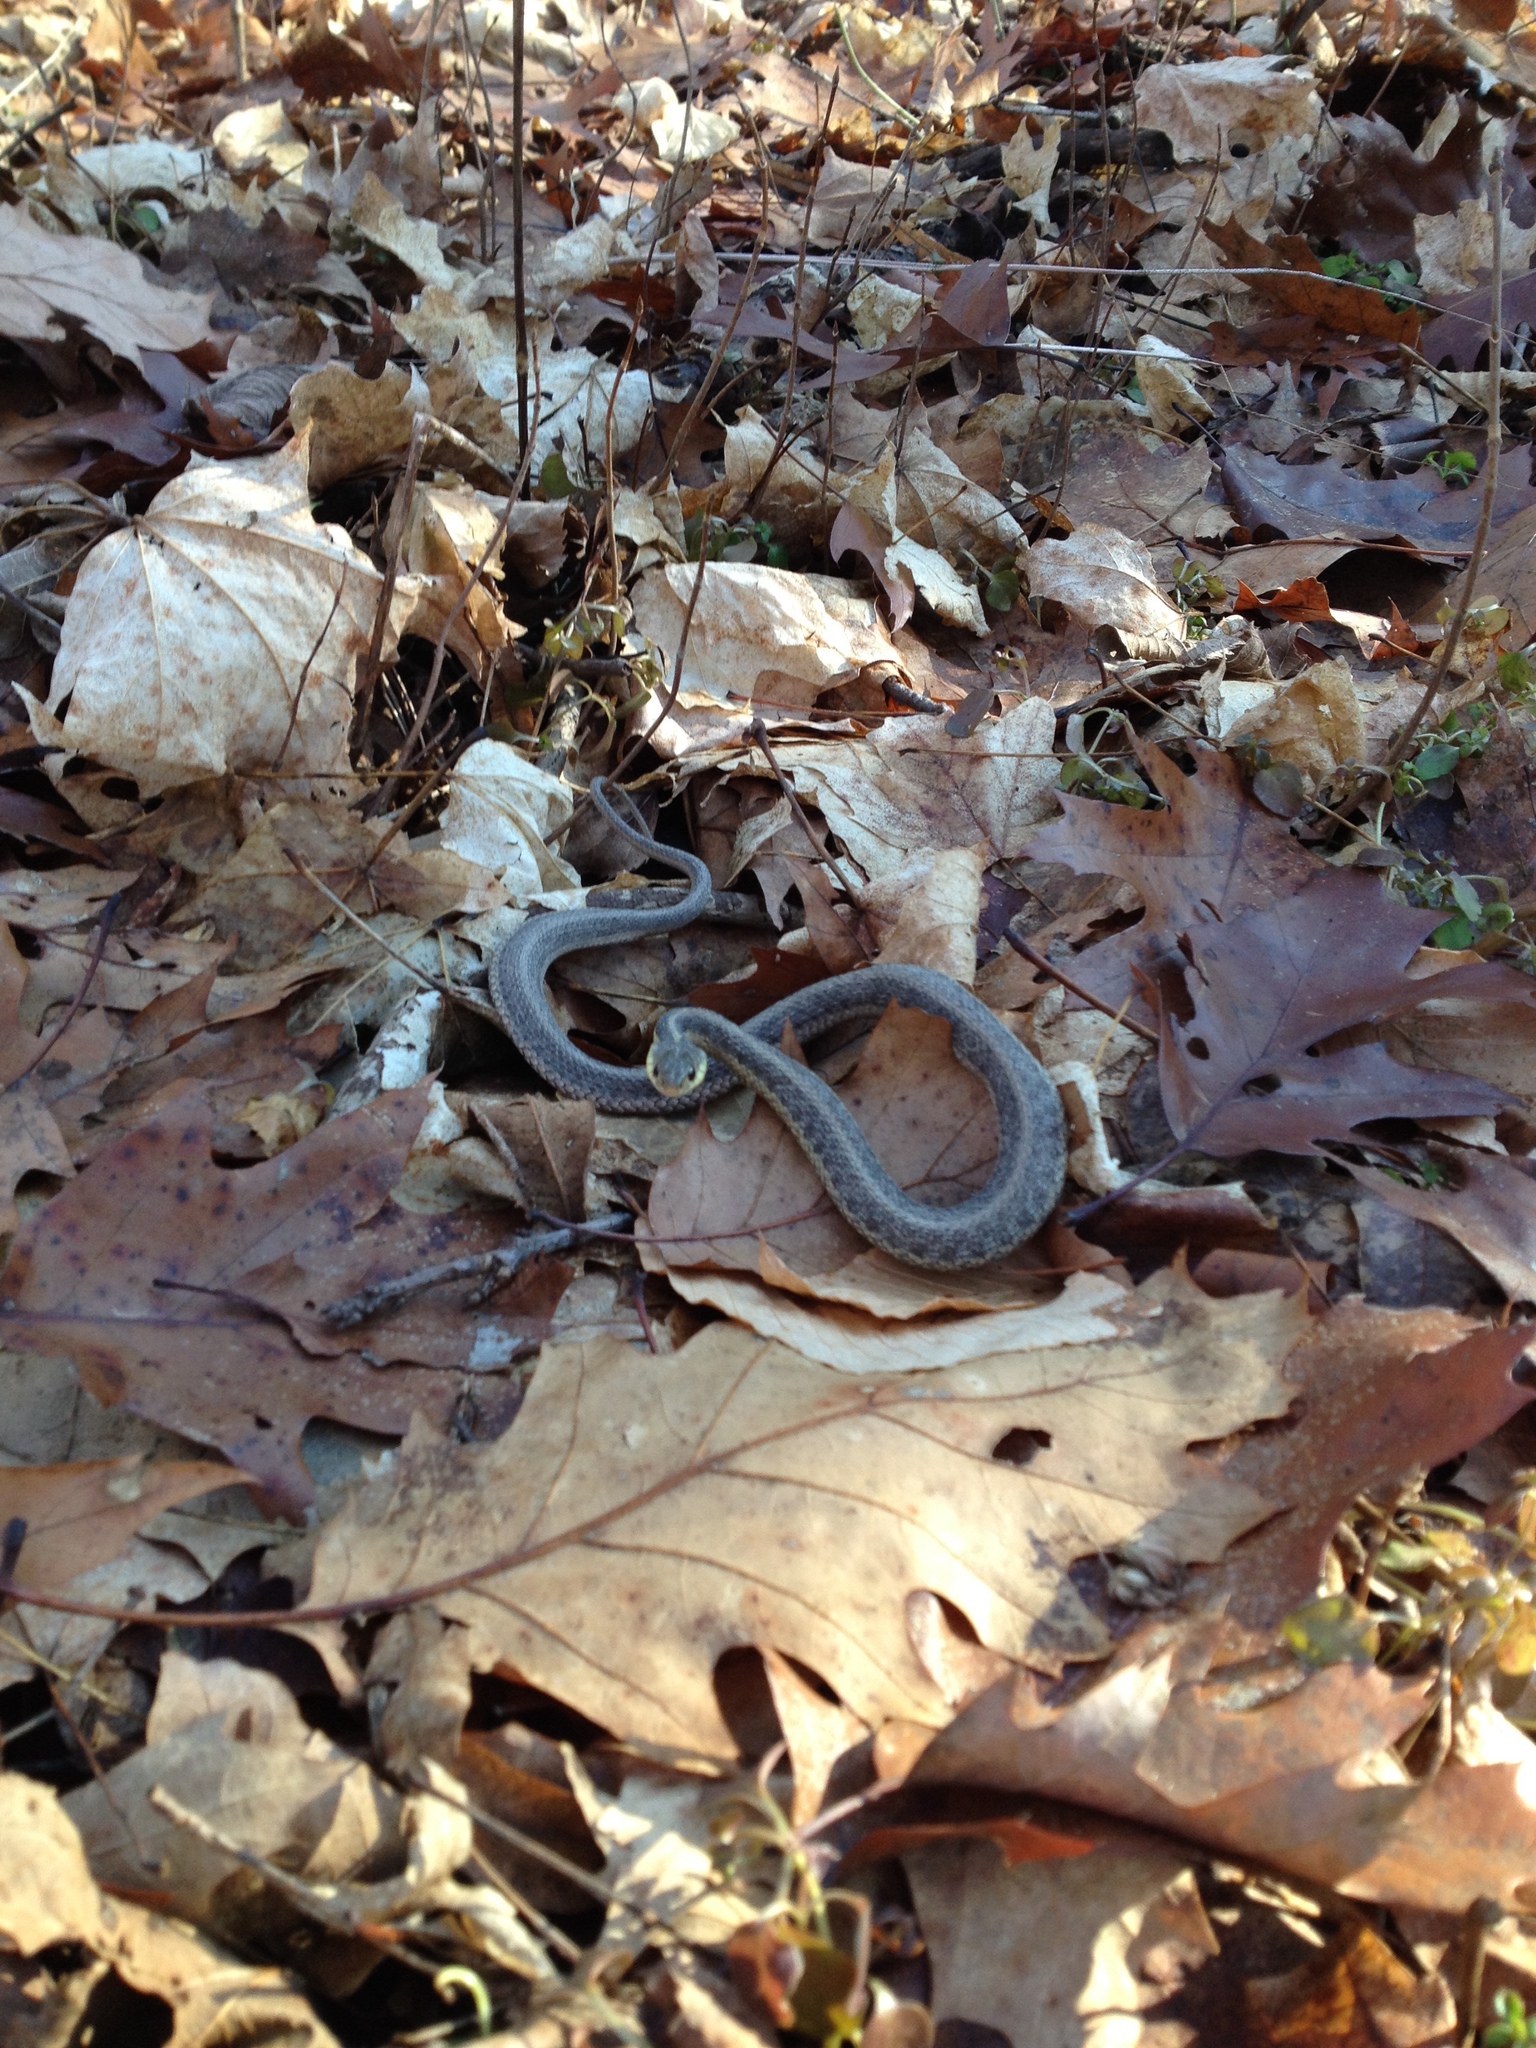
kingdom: Animalia
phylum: Chordata
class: Squamata
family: Colubridae
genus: Thamnophis
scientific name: Thamnophis sirtalis
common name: Common garter snake
